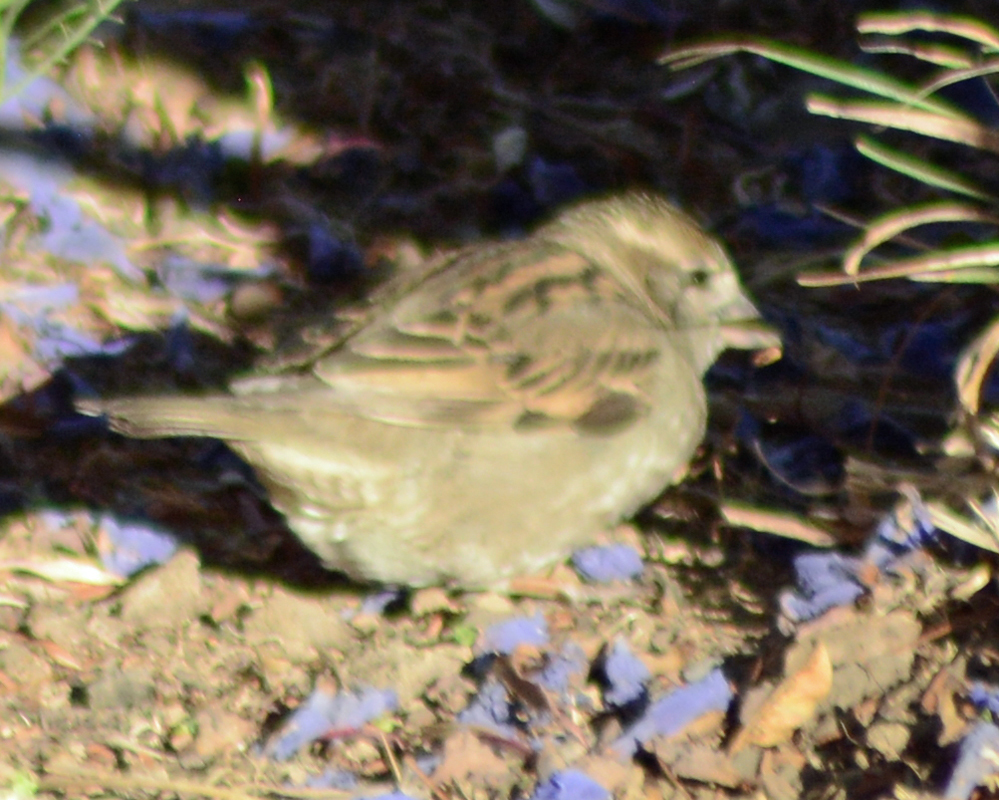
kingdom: Animalia
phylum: Chordata
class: Aves
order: Passeriformes
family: Passeridae
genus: Passer
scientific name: Passer domesticus
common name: House sparrow
